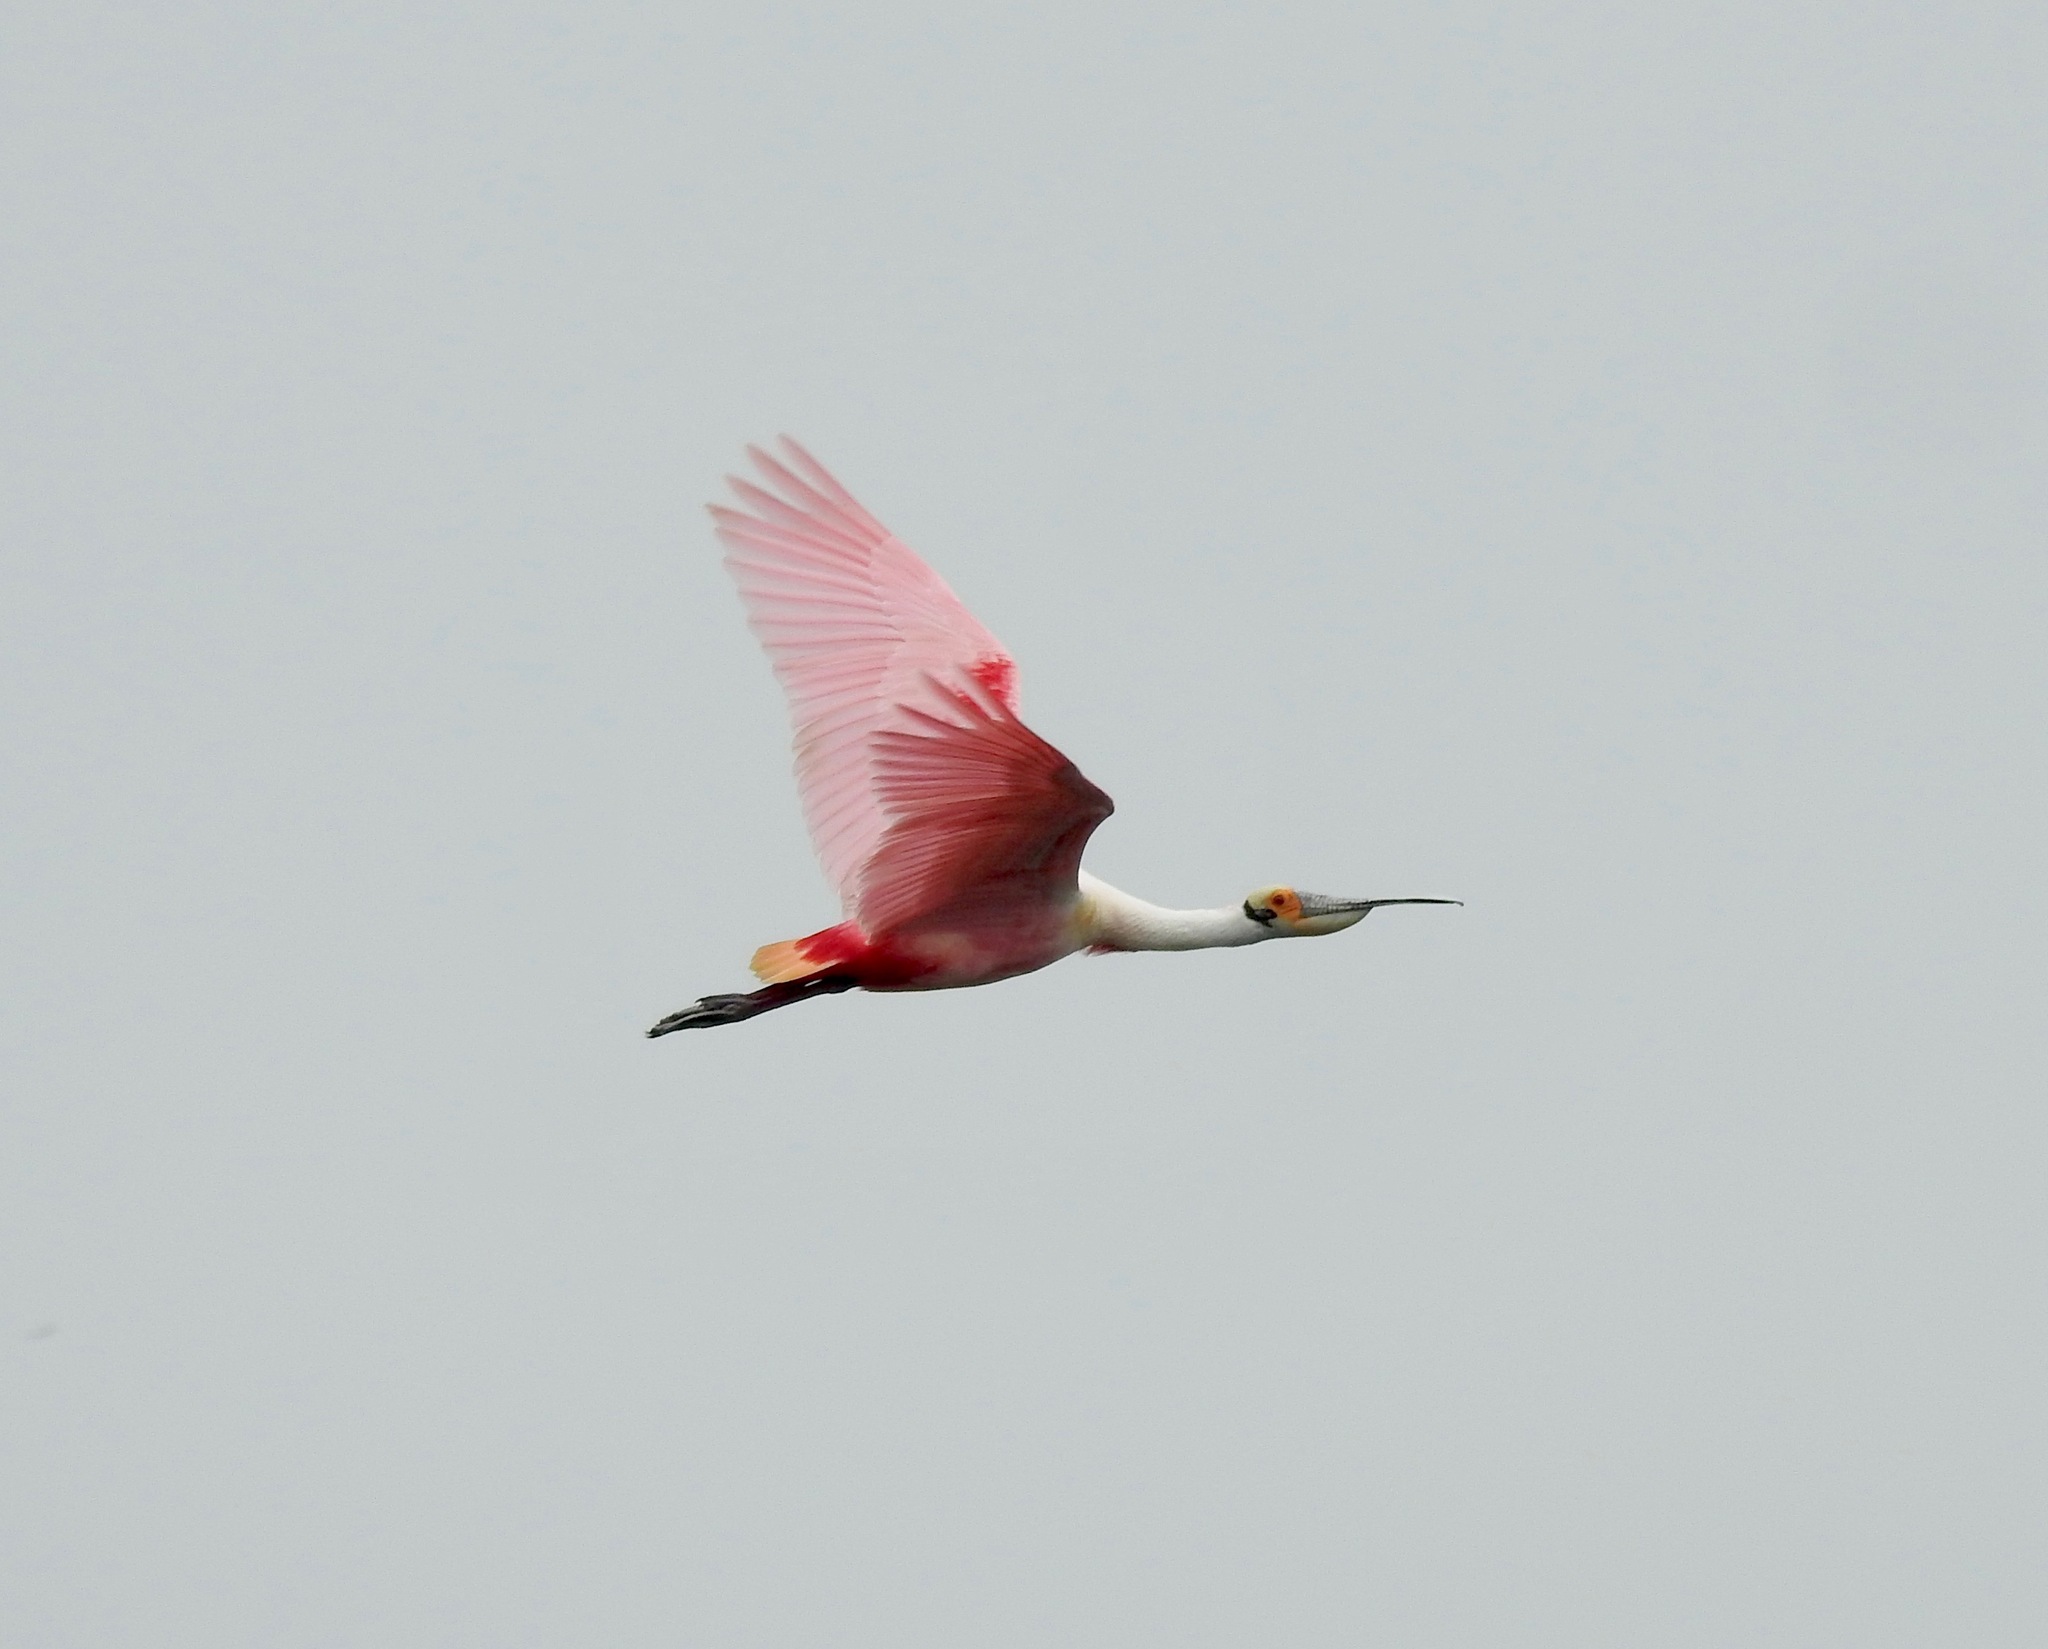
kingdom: Animalia
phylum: Chordata
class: Aves
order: Pelecaniformes
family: Threskiornithidae
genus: Platalea
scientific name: Platalea ajaja
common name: Roseate spoonbill
